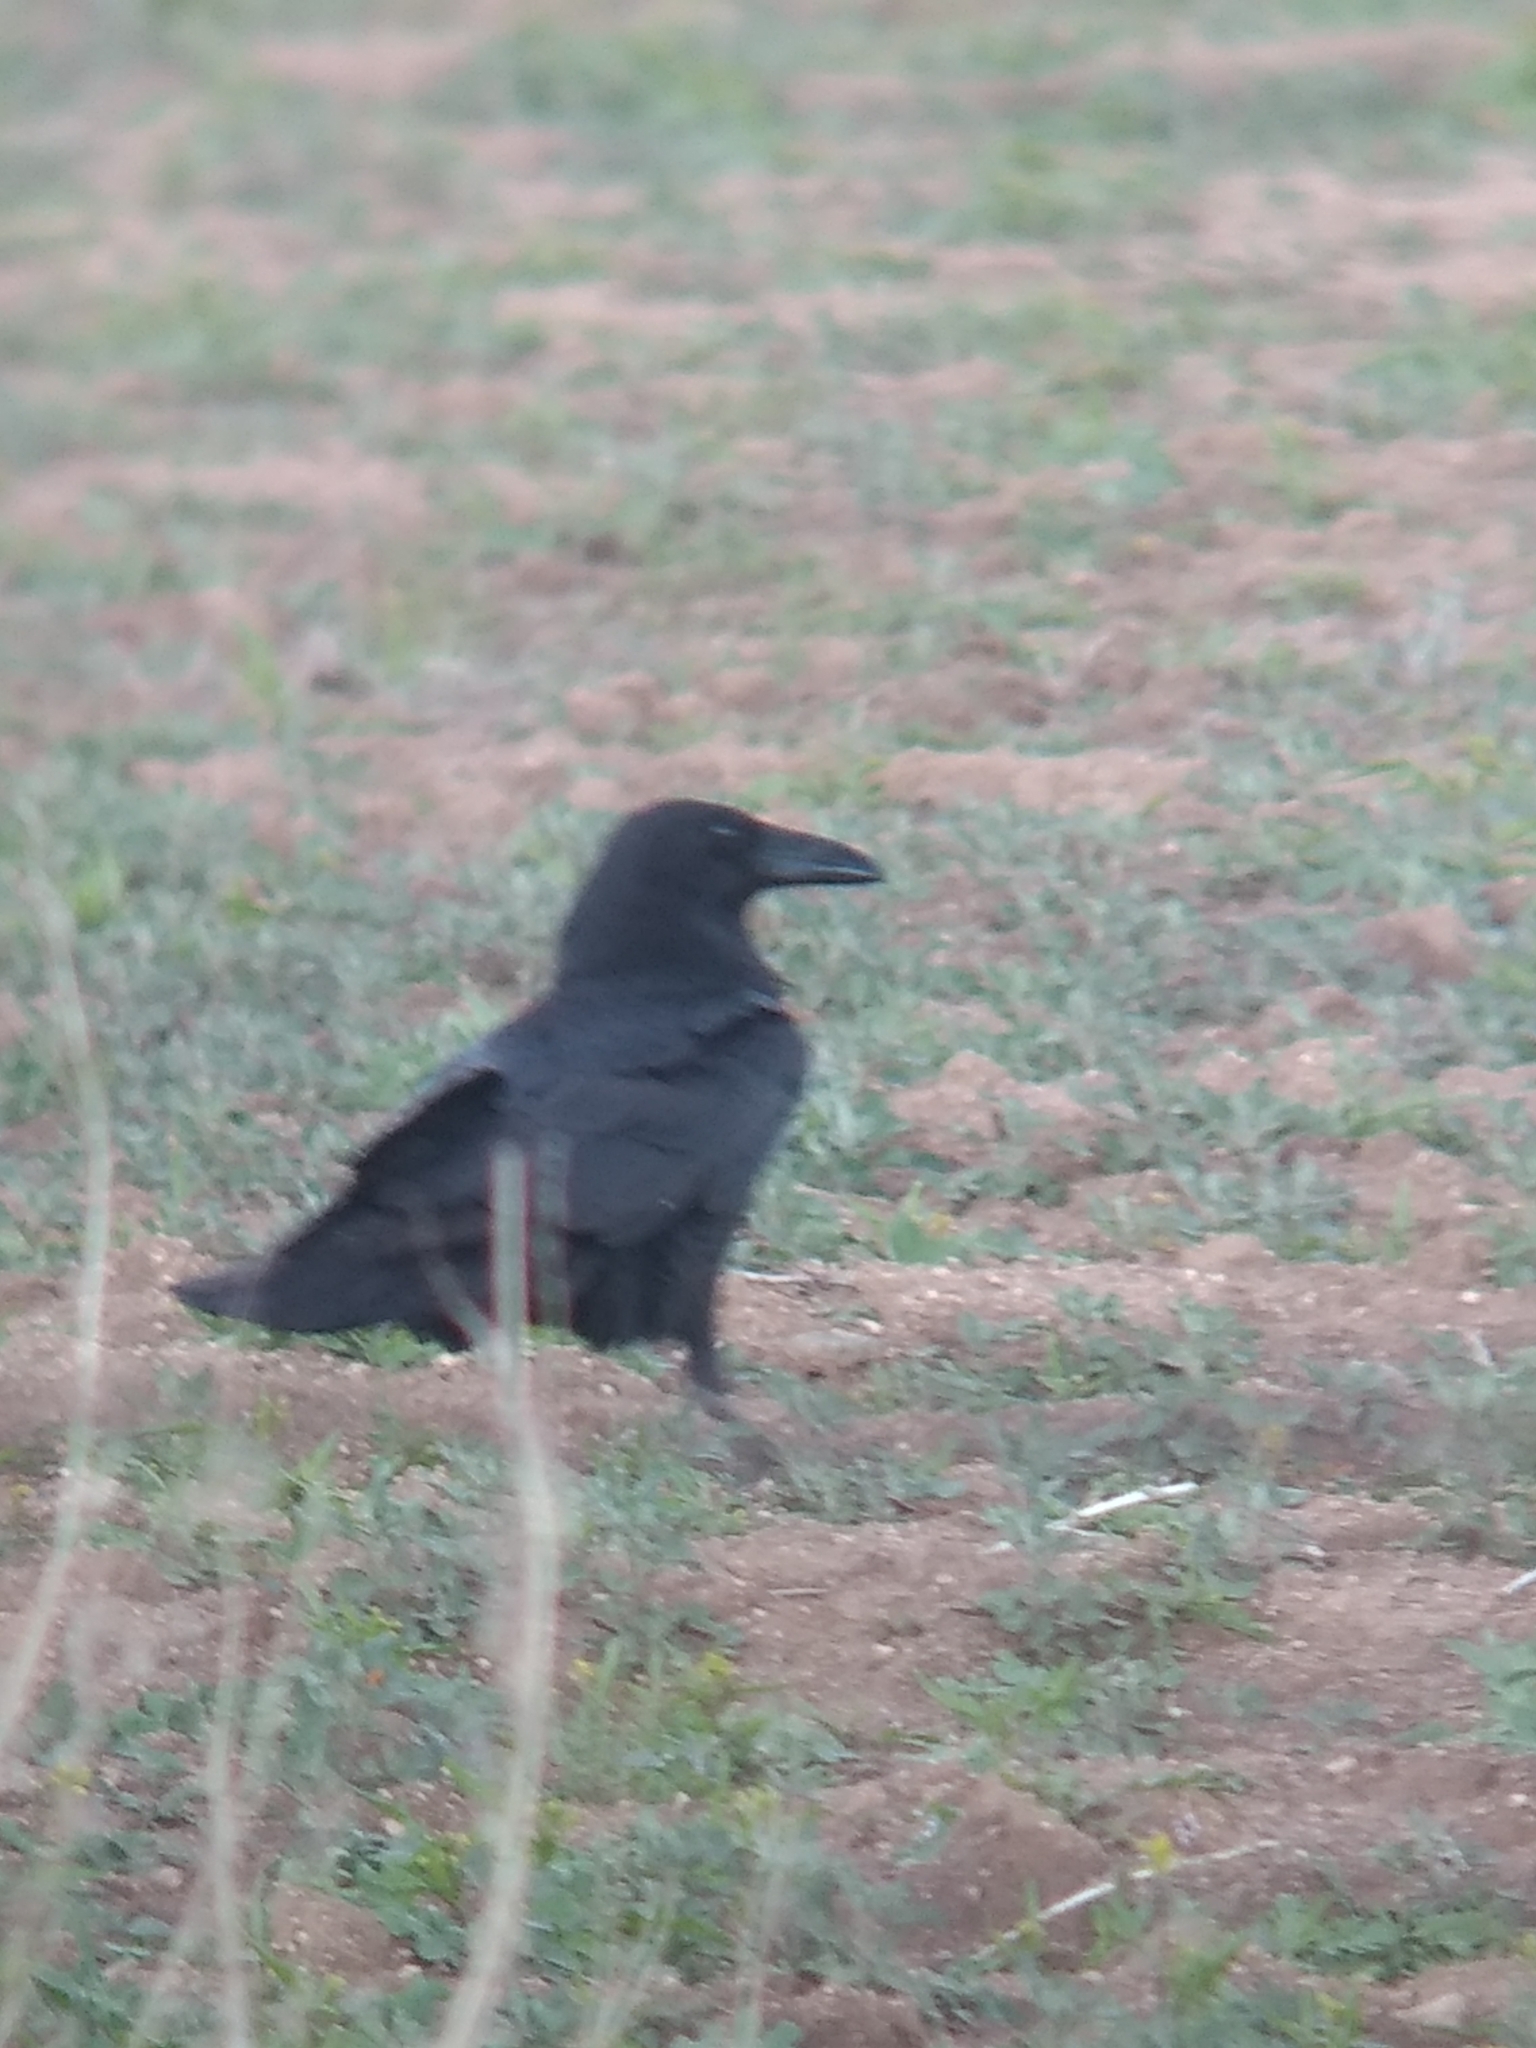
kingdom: Animalia
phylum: Chordata
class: Aves
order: Passeriformes
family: Corvidae
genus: Corvus
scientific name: Corvus corax
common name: Common raven
